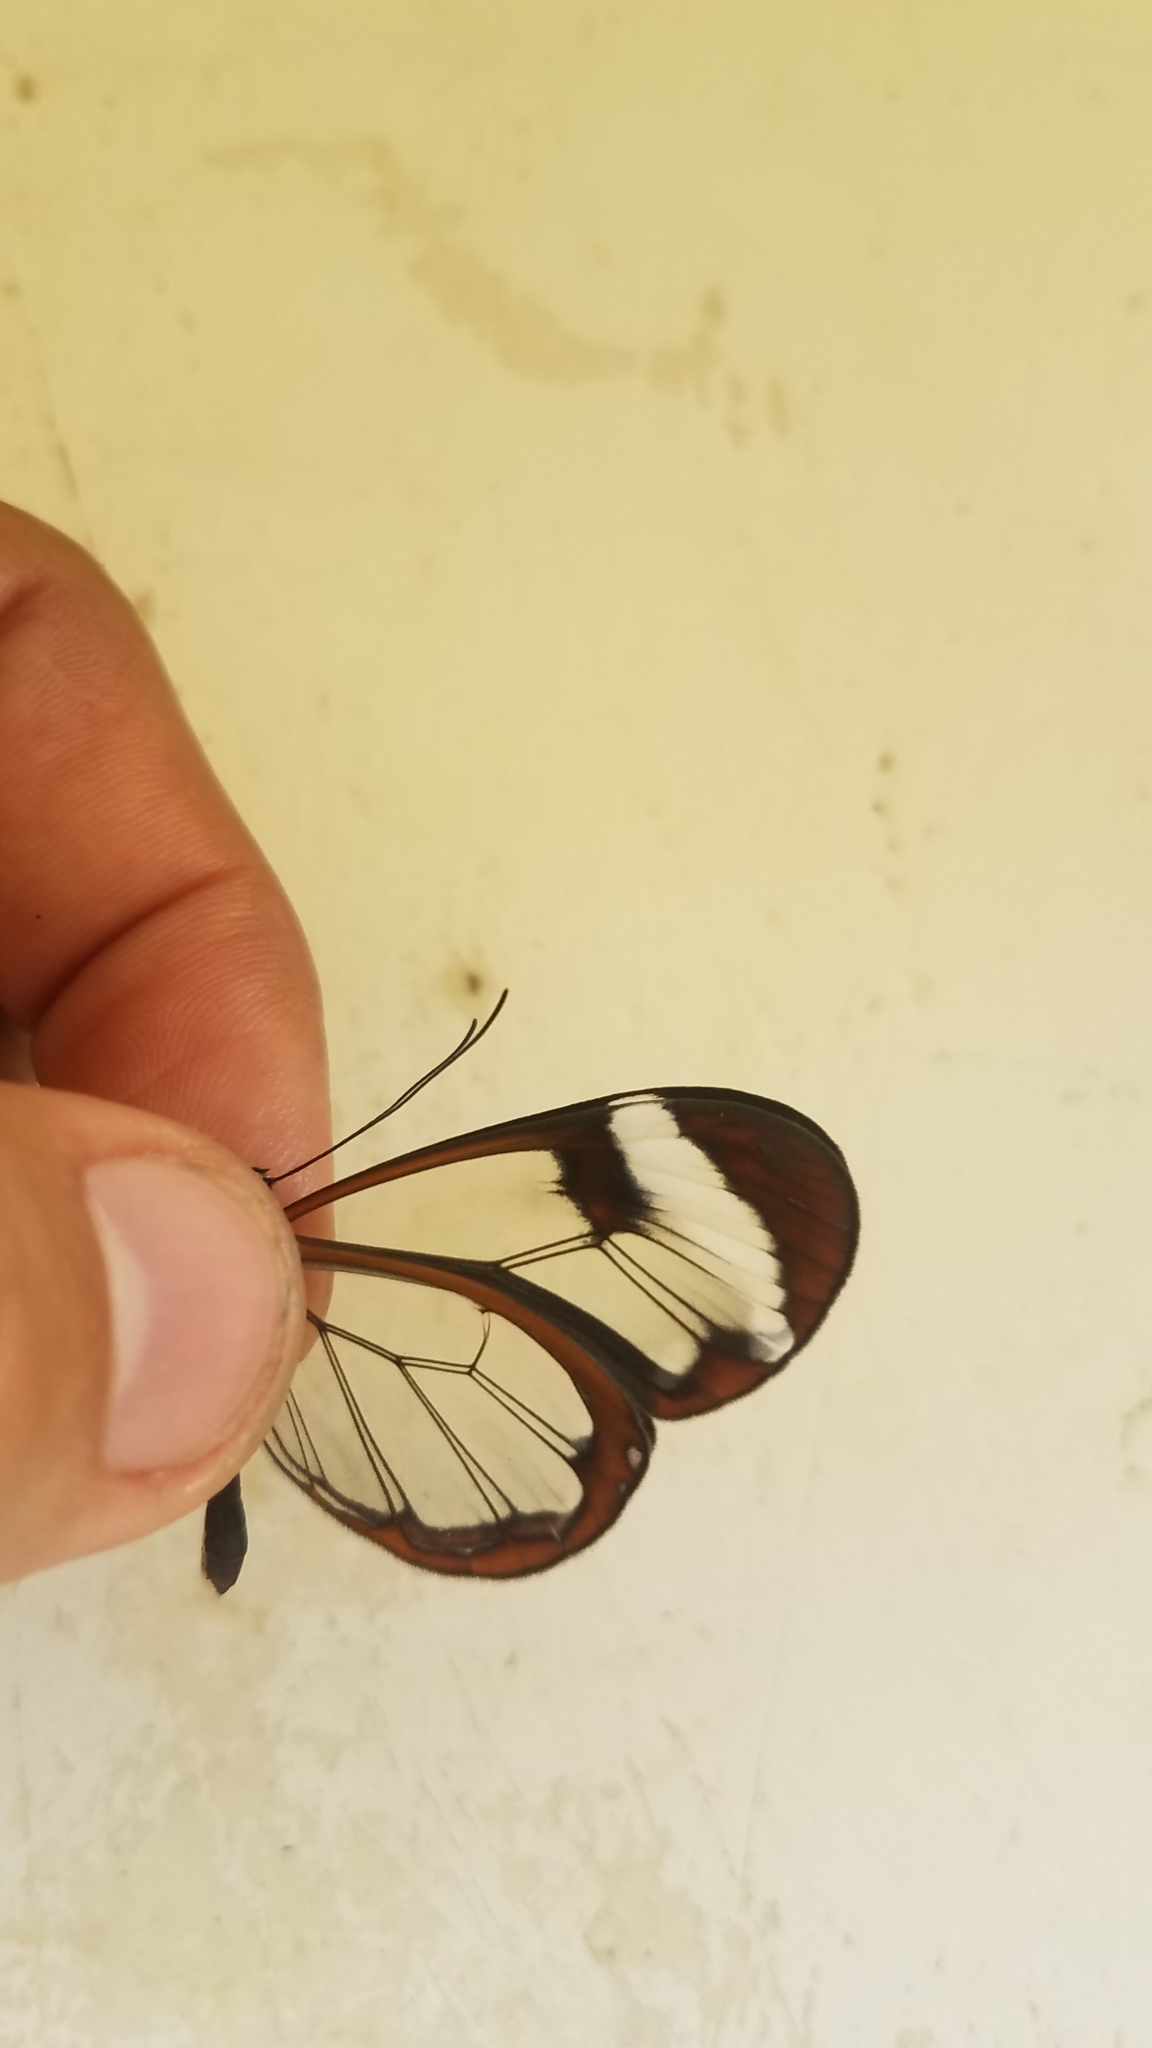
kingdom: Animalia
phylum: Arthropoda
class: Insecta
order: Lepidoptera
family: Nymphalidae
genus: Greta
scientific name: Greta morgane
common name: Thick-tipped greta
